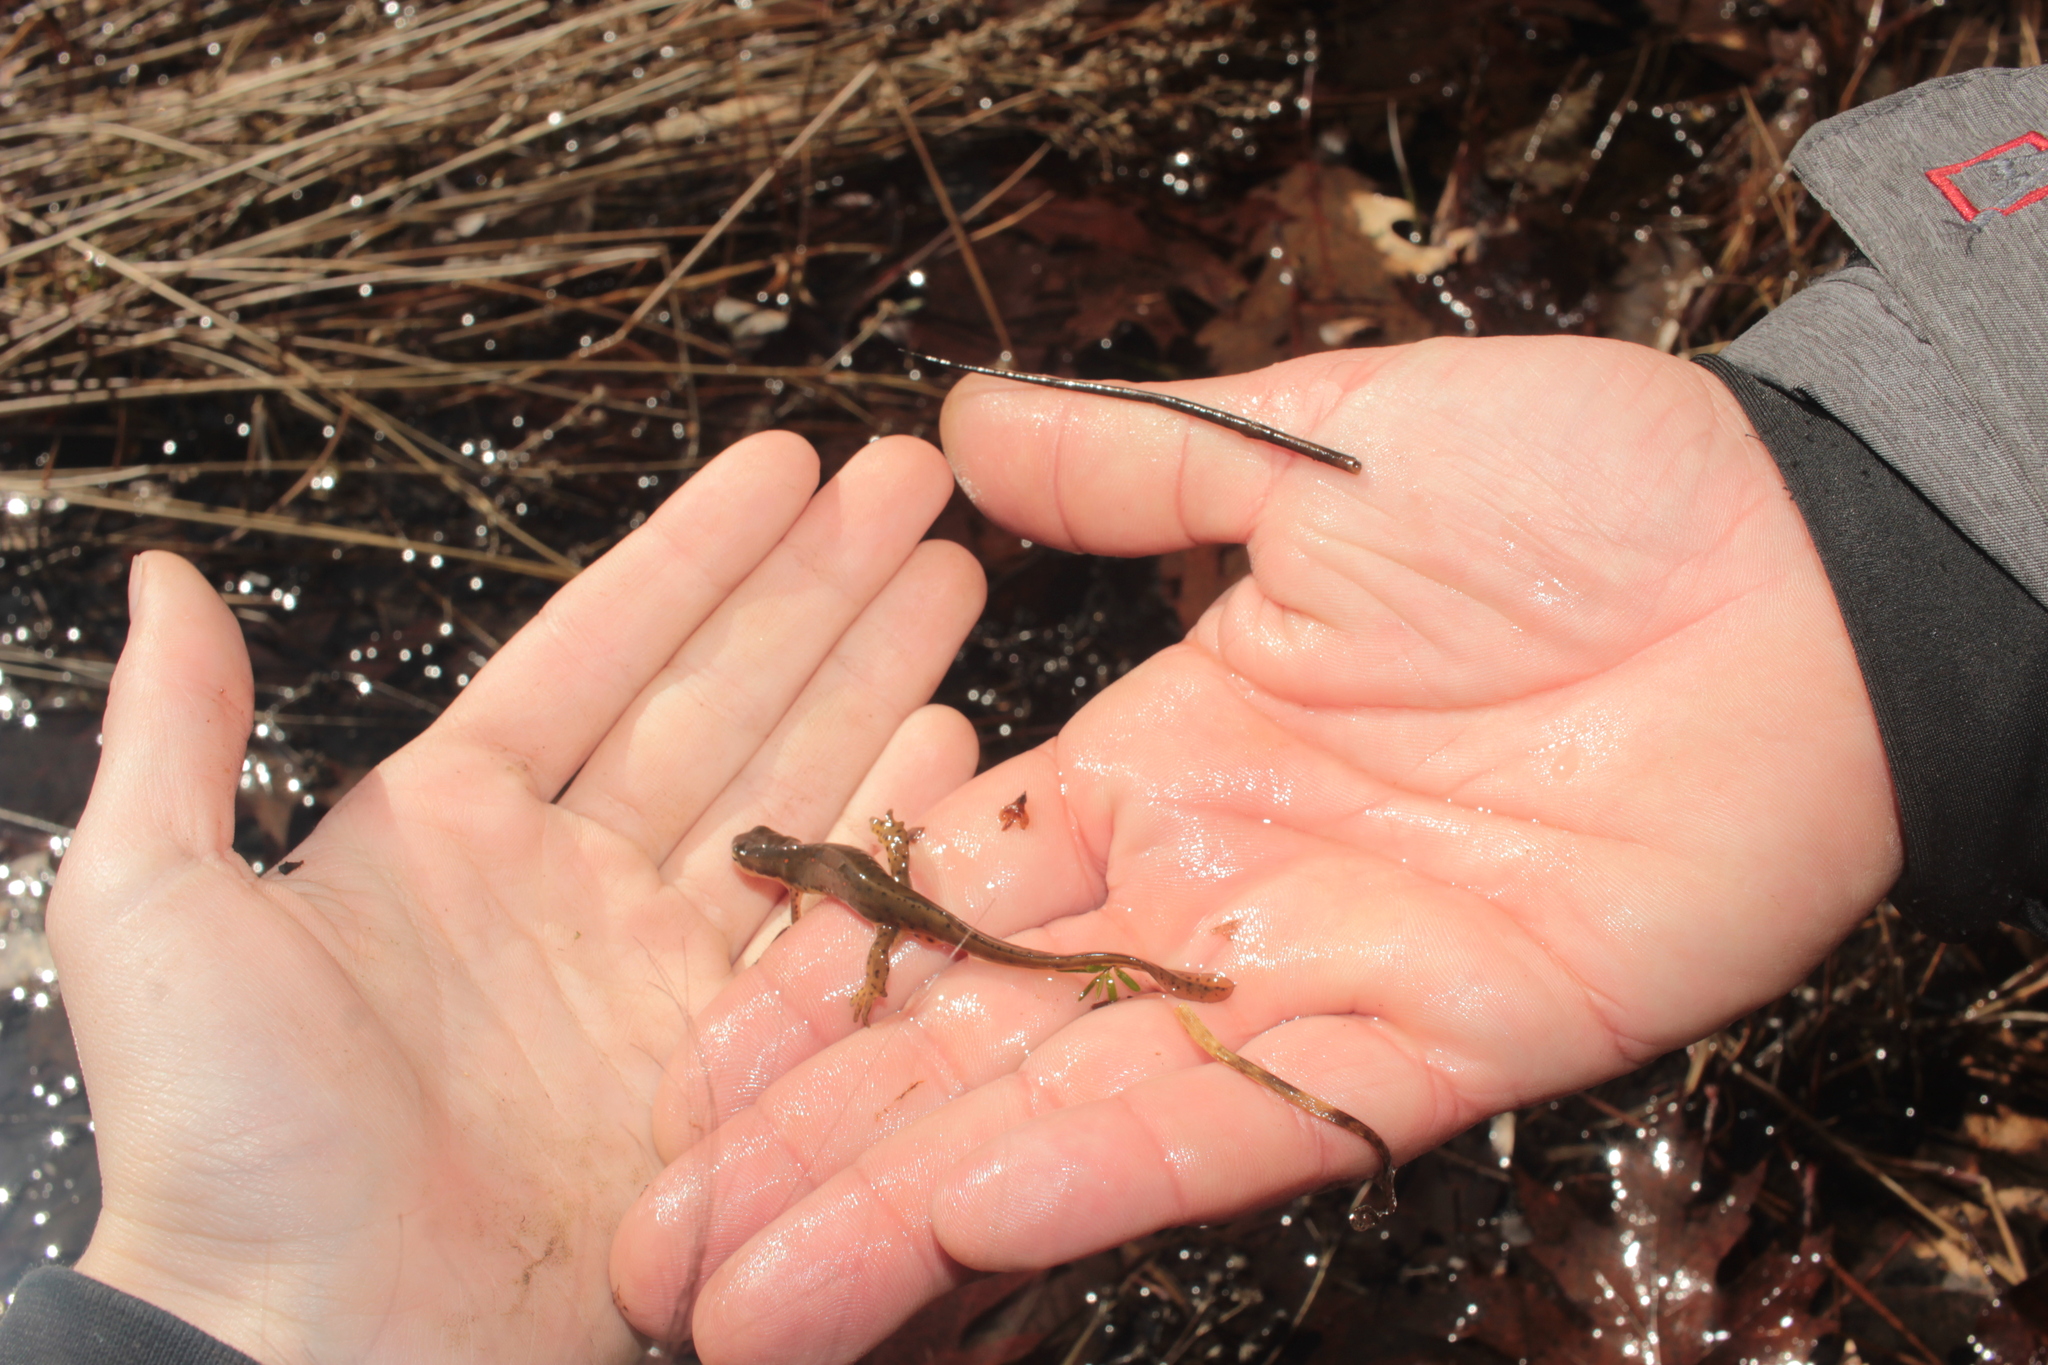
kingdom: Animalia
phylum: Chordata
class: Amphibia
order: Caudata
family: Salamandridae
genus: Notophthalmus
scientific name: Notophthalmus viridescens
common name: Eastern newt
